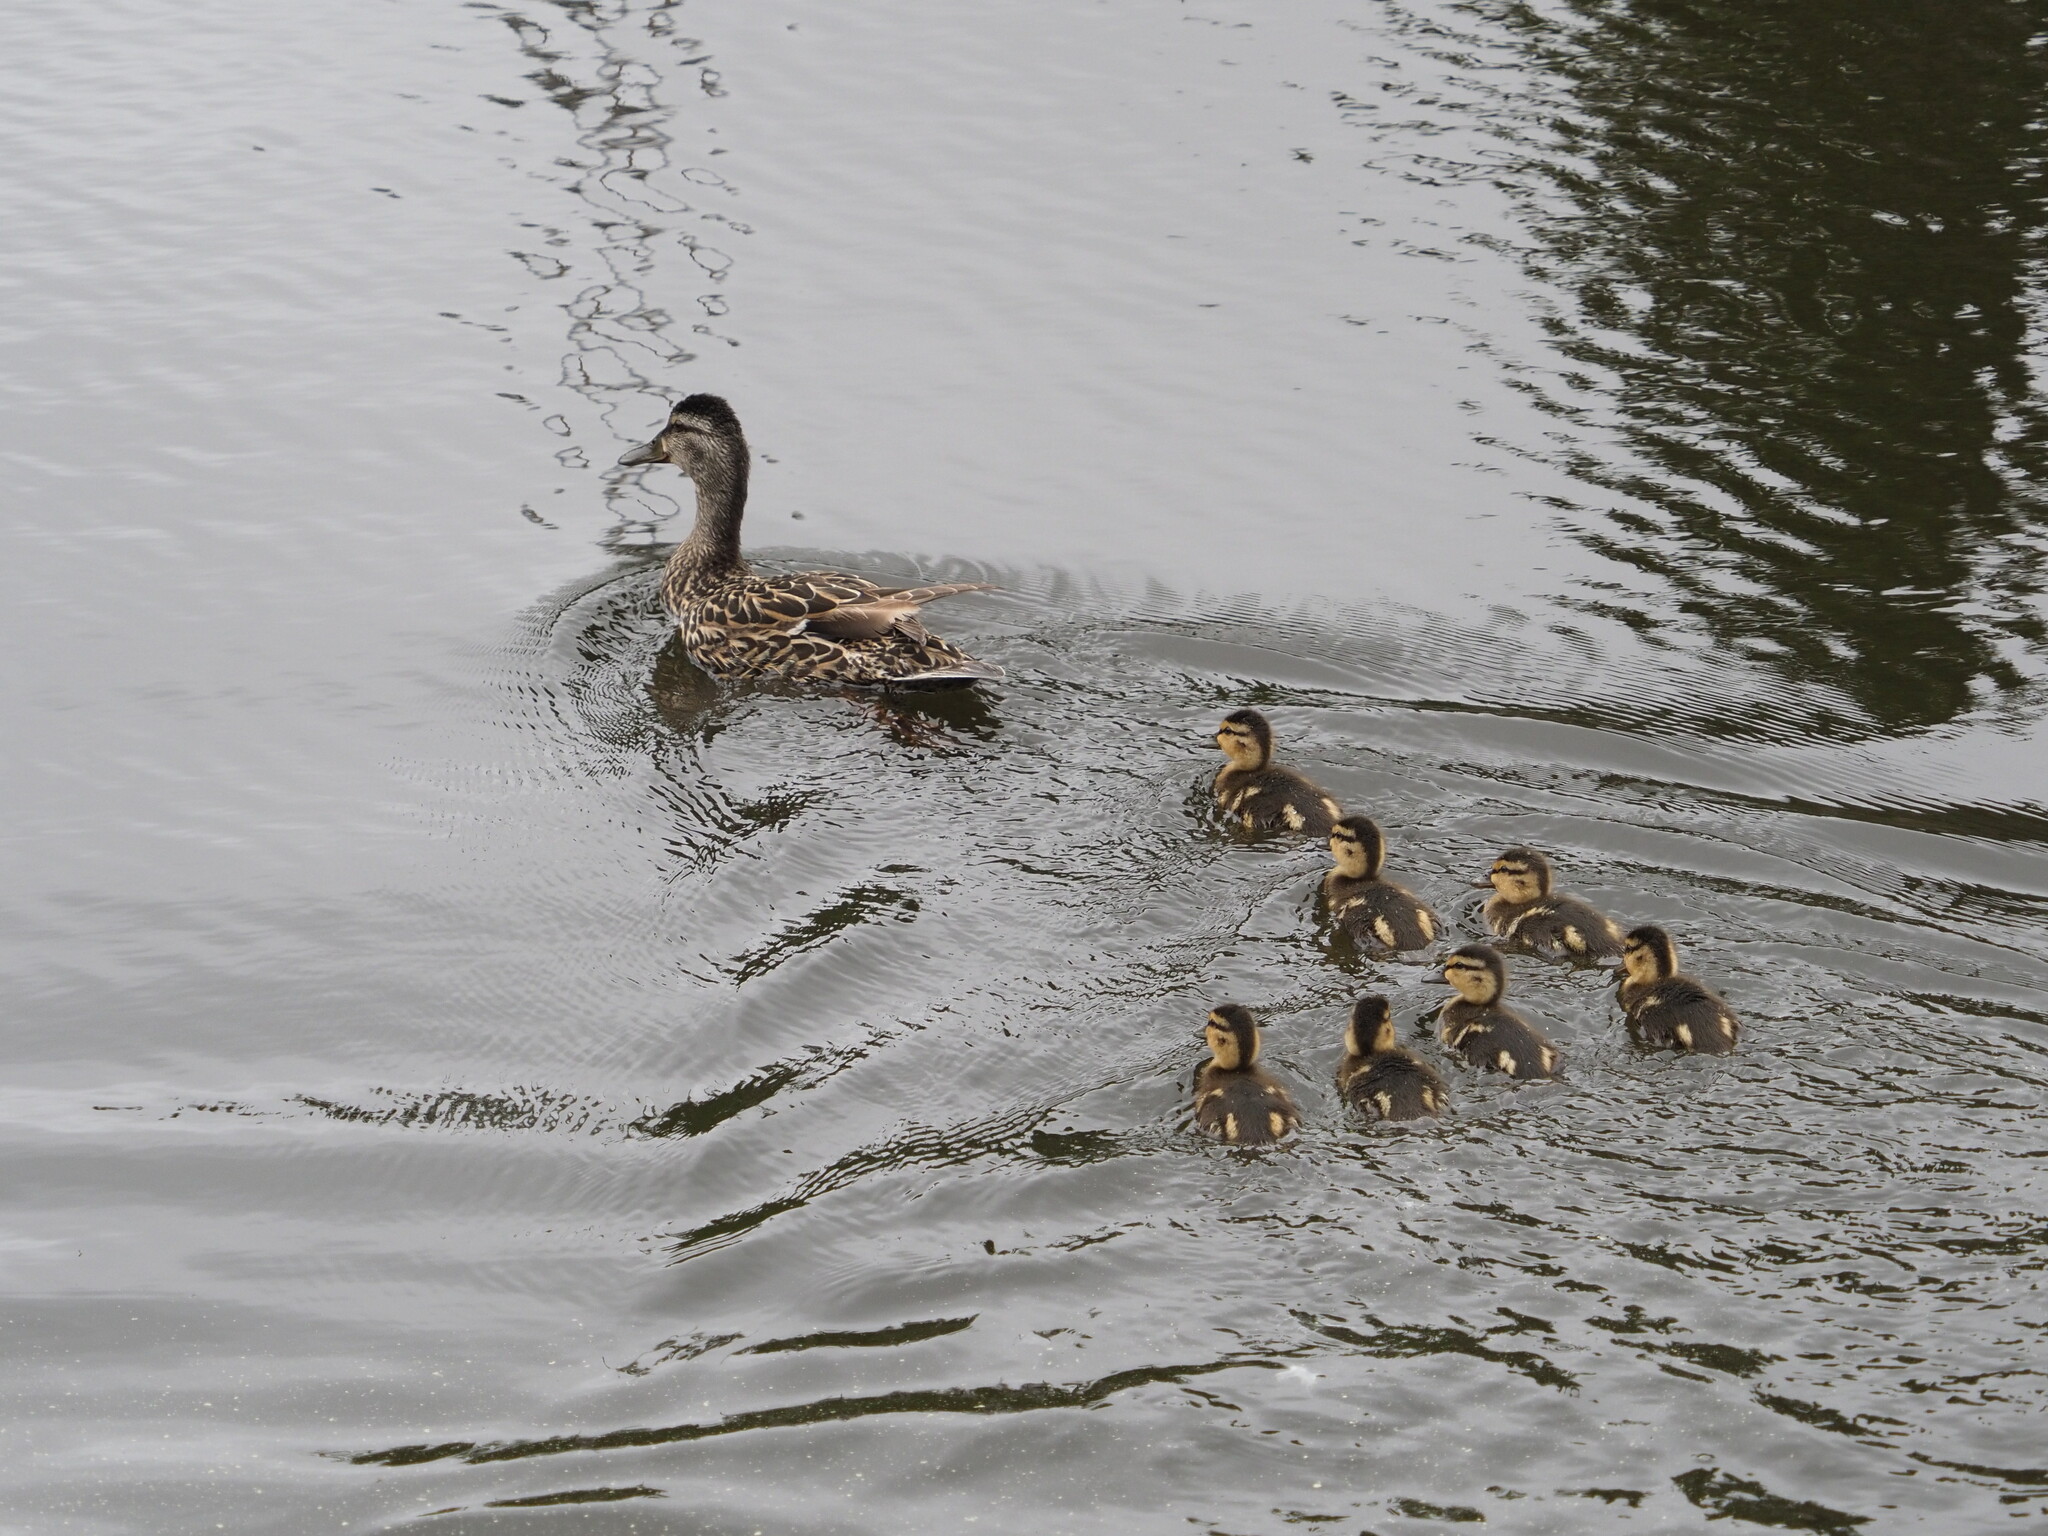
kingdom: Animalia
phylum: Chordata
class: Aves
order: Anseriformes
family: Anatidae
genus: Anas
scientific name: Anas platyrhynchos
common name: Mallard
